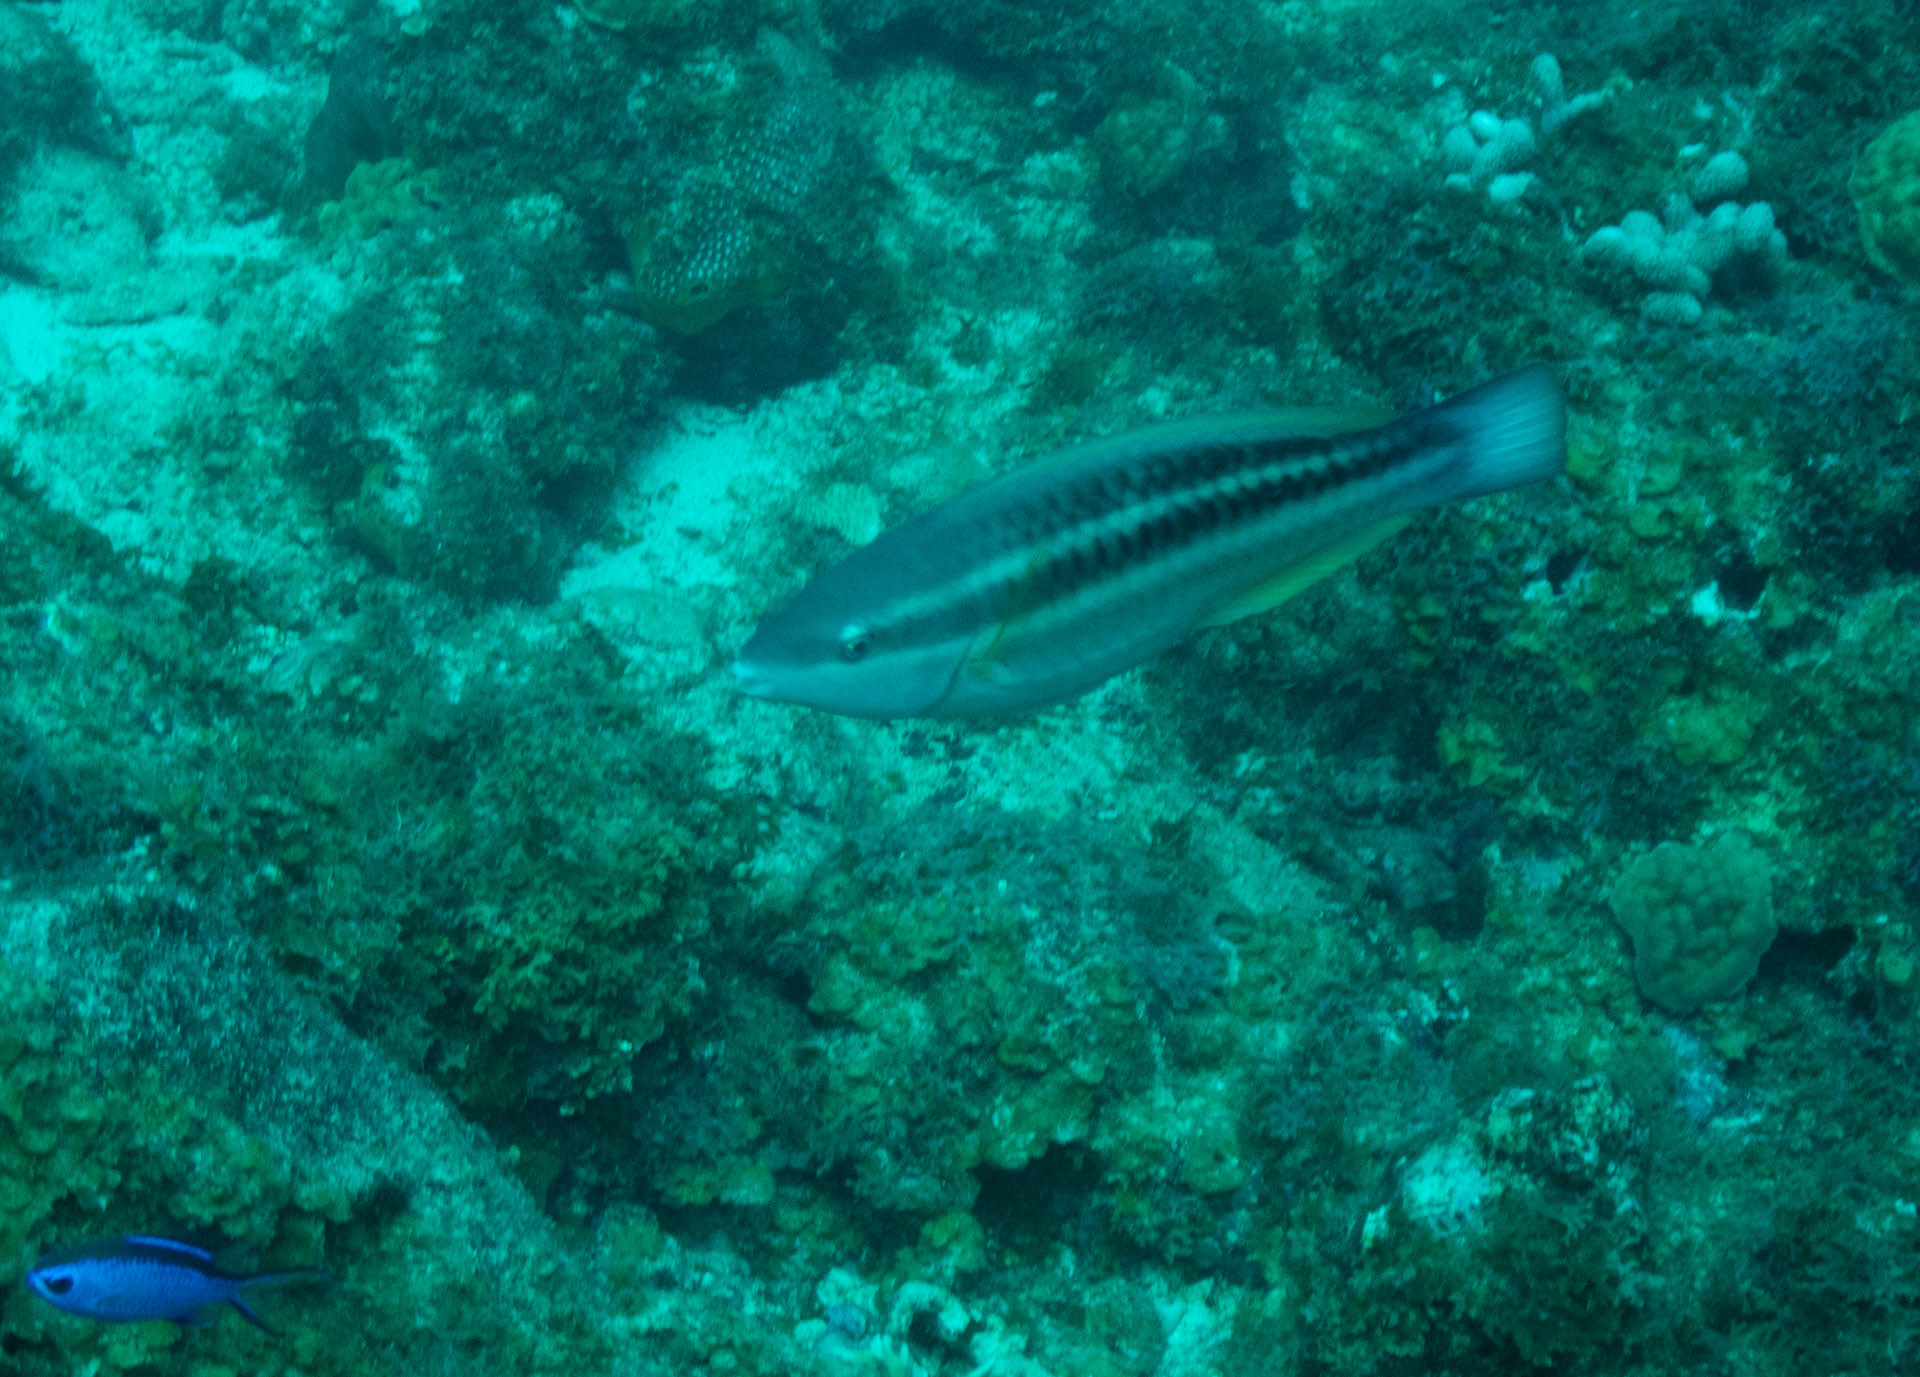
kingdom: Animalia
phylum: Chordata
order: Perciformes
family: Scaridae
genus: Scarus
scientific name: Scarus iseri
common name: Striped parrotfish
